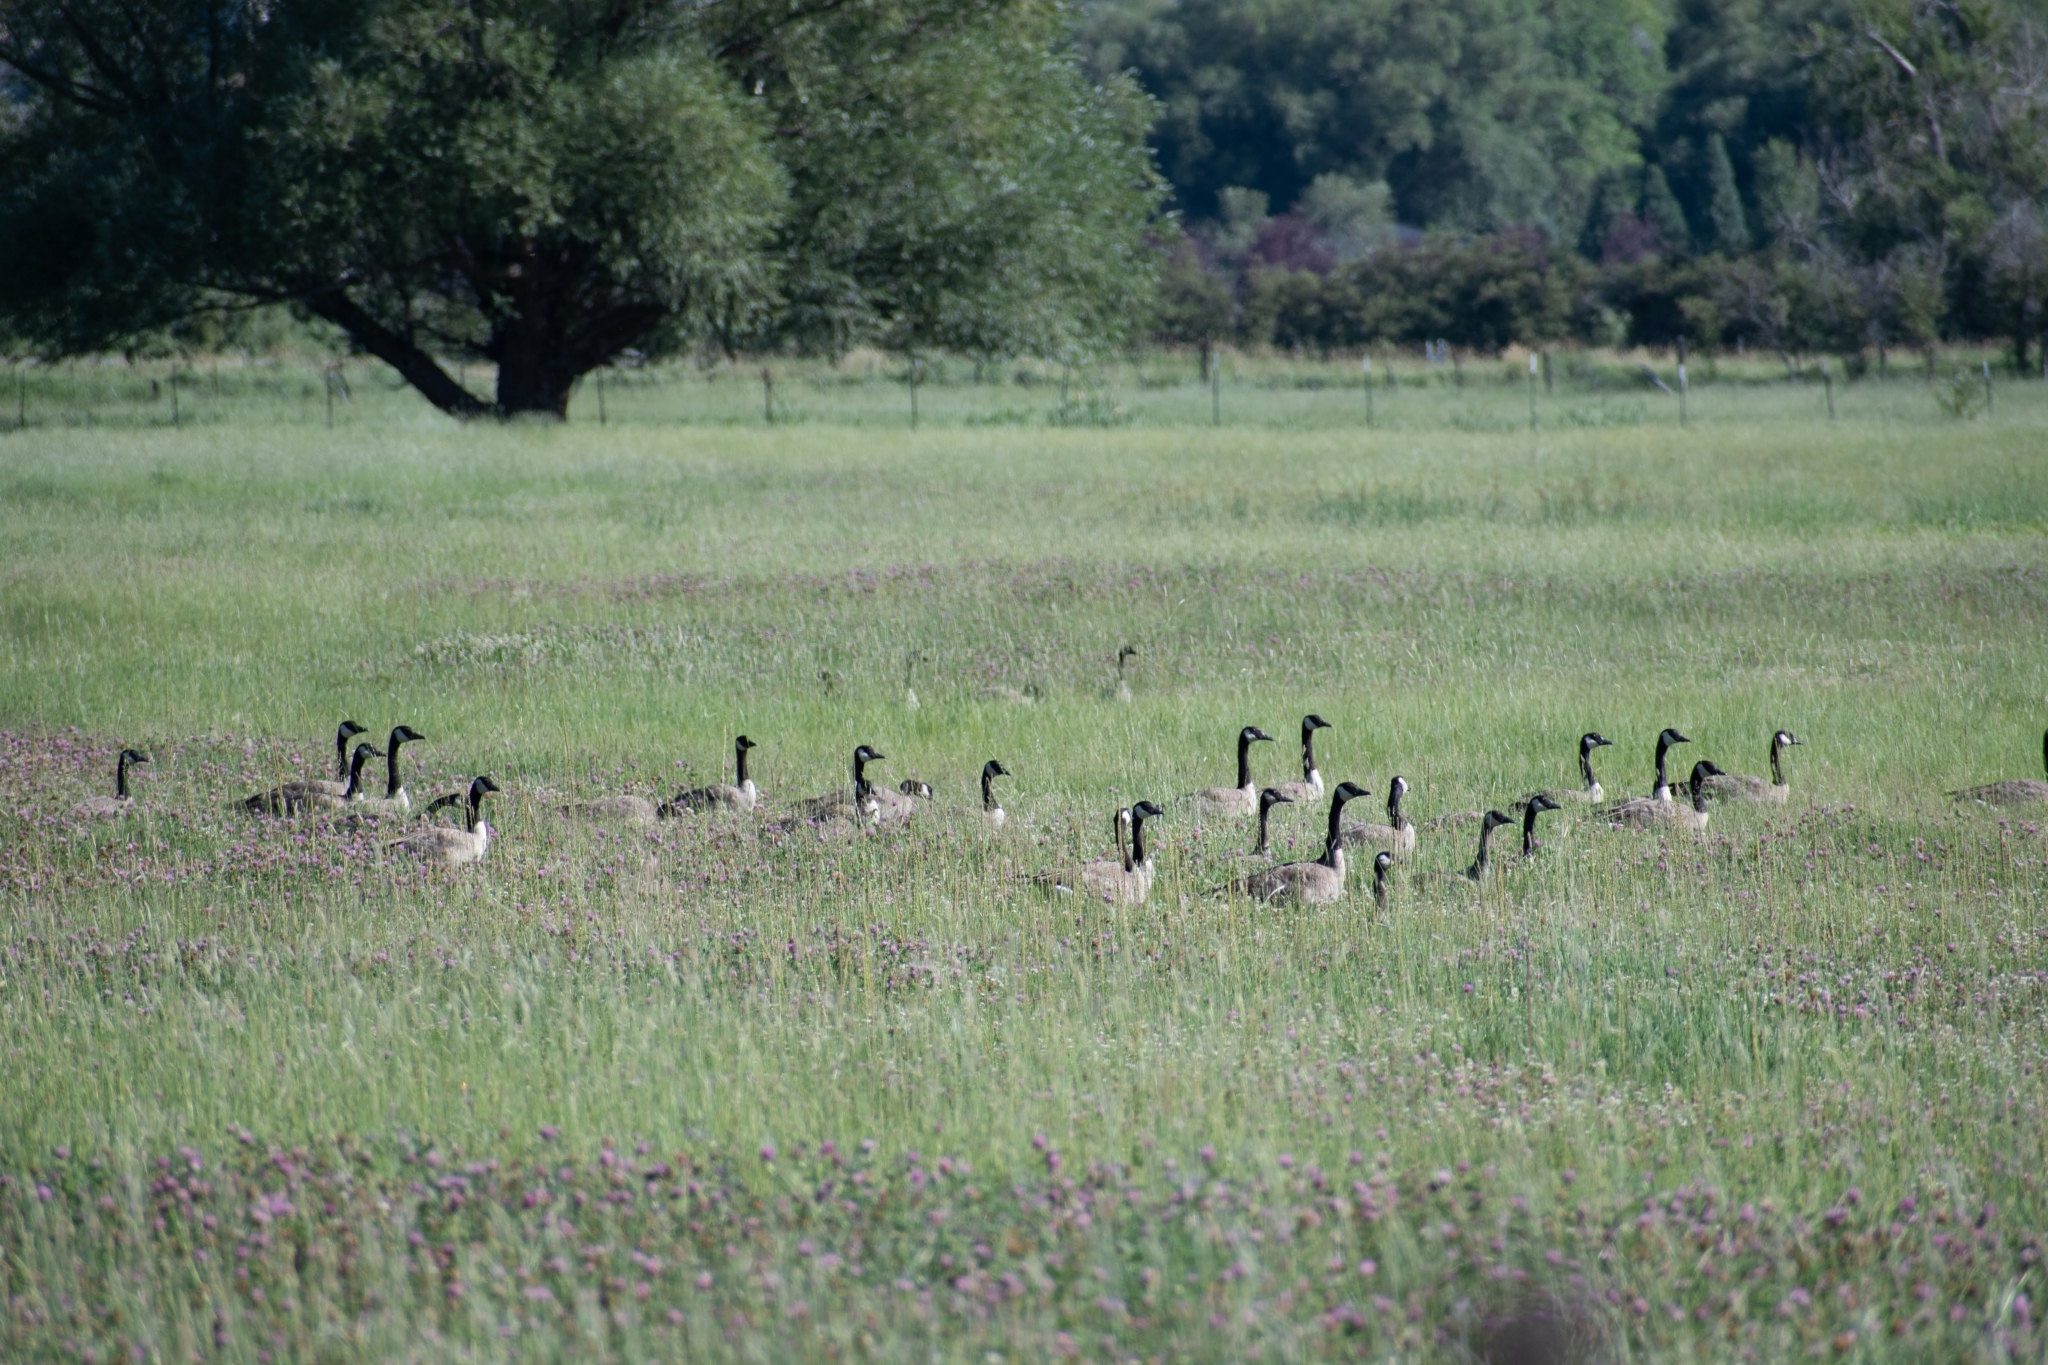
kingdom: Animalia
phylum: Chordata
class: Aves
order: Anseriformes
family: Anatidae
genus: Branta
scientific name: Branta canadensis
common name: Canada goose
